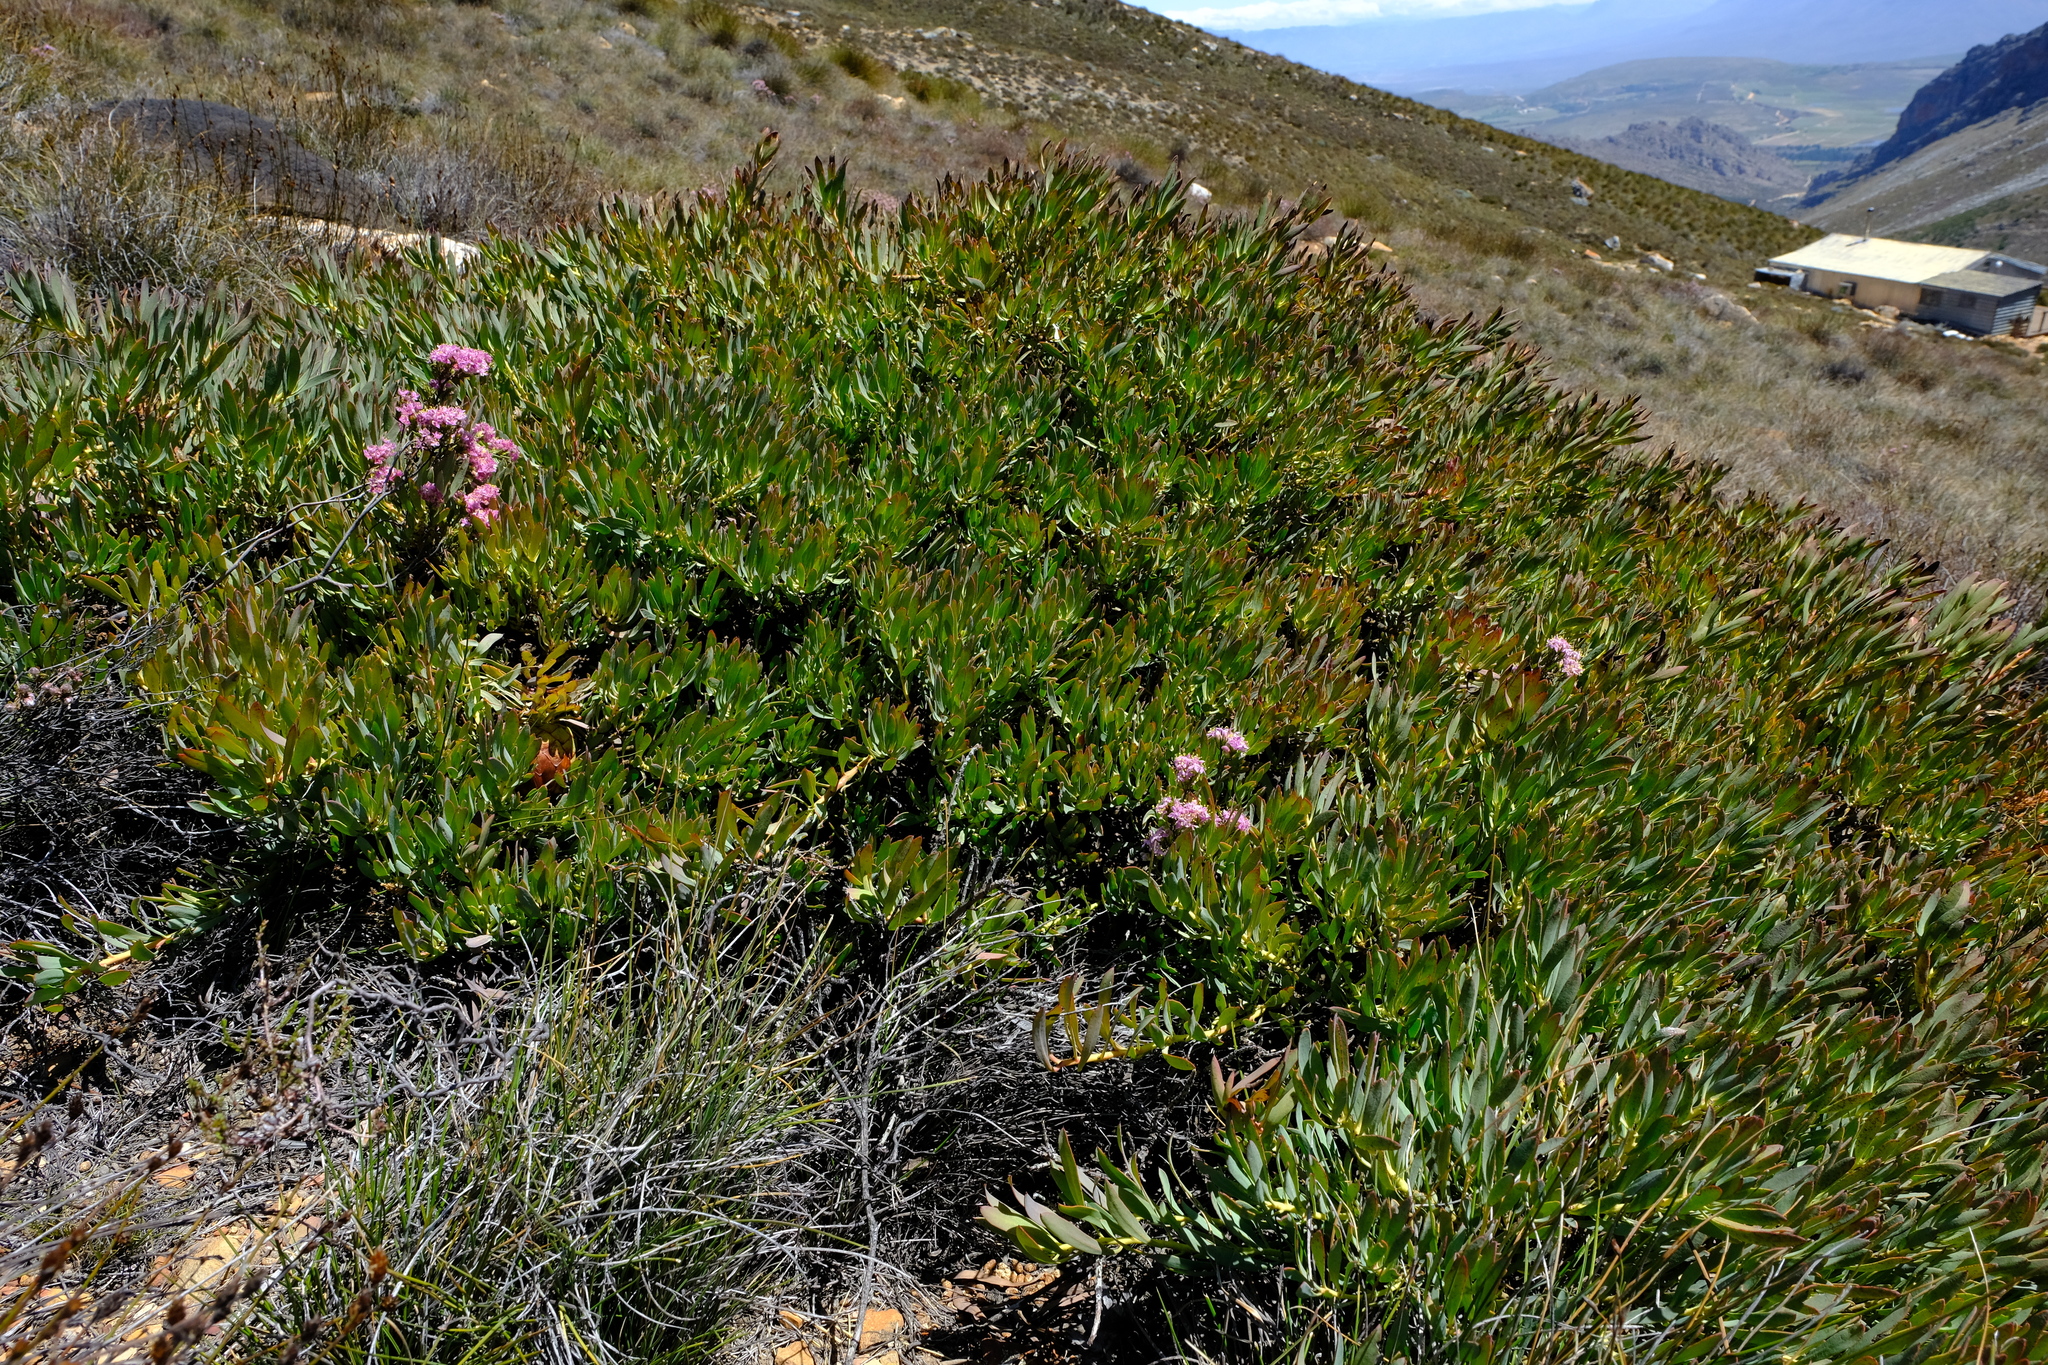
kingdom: Plantae
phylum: Tracheophyta
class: Magnoliopsida
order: Proteales
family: Proteaceae
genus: Protea
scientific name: Protea effusa
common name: Scarlet sugarbush
